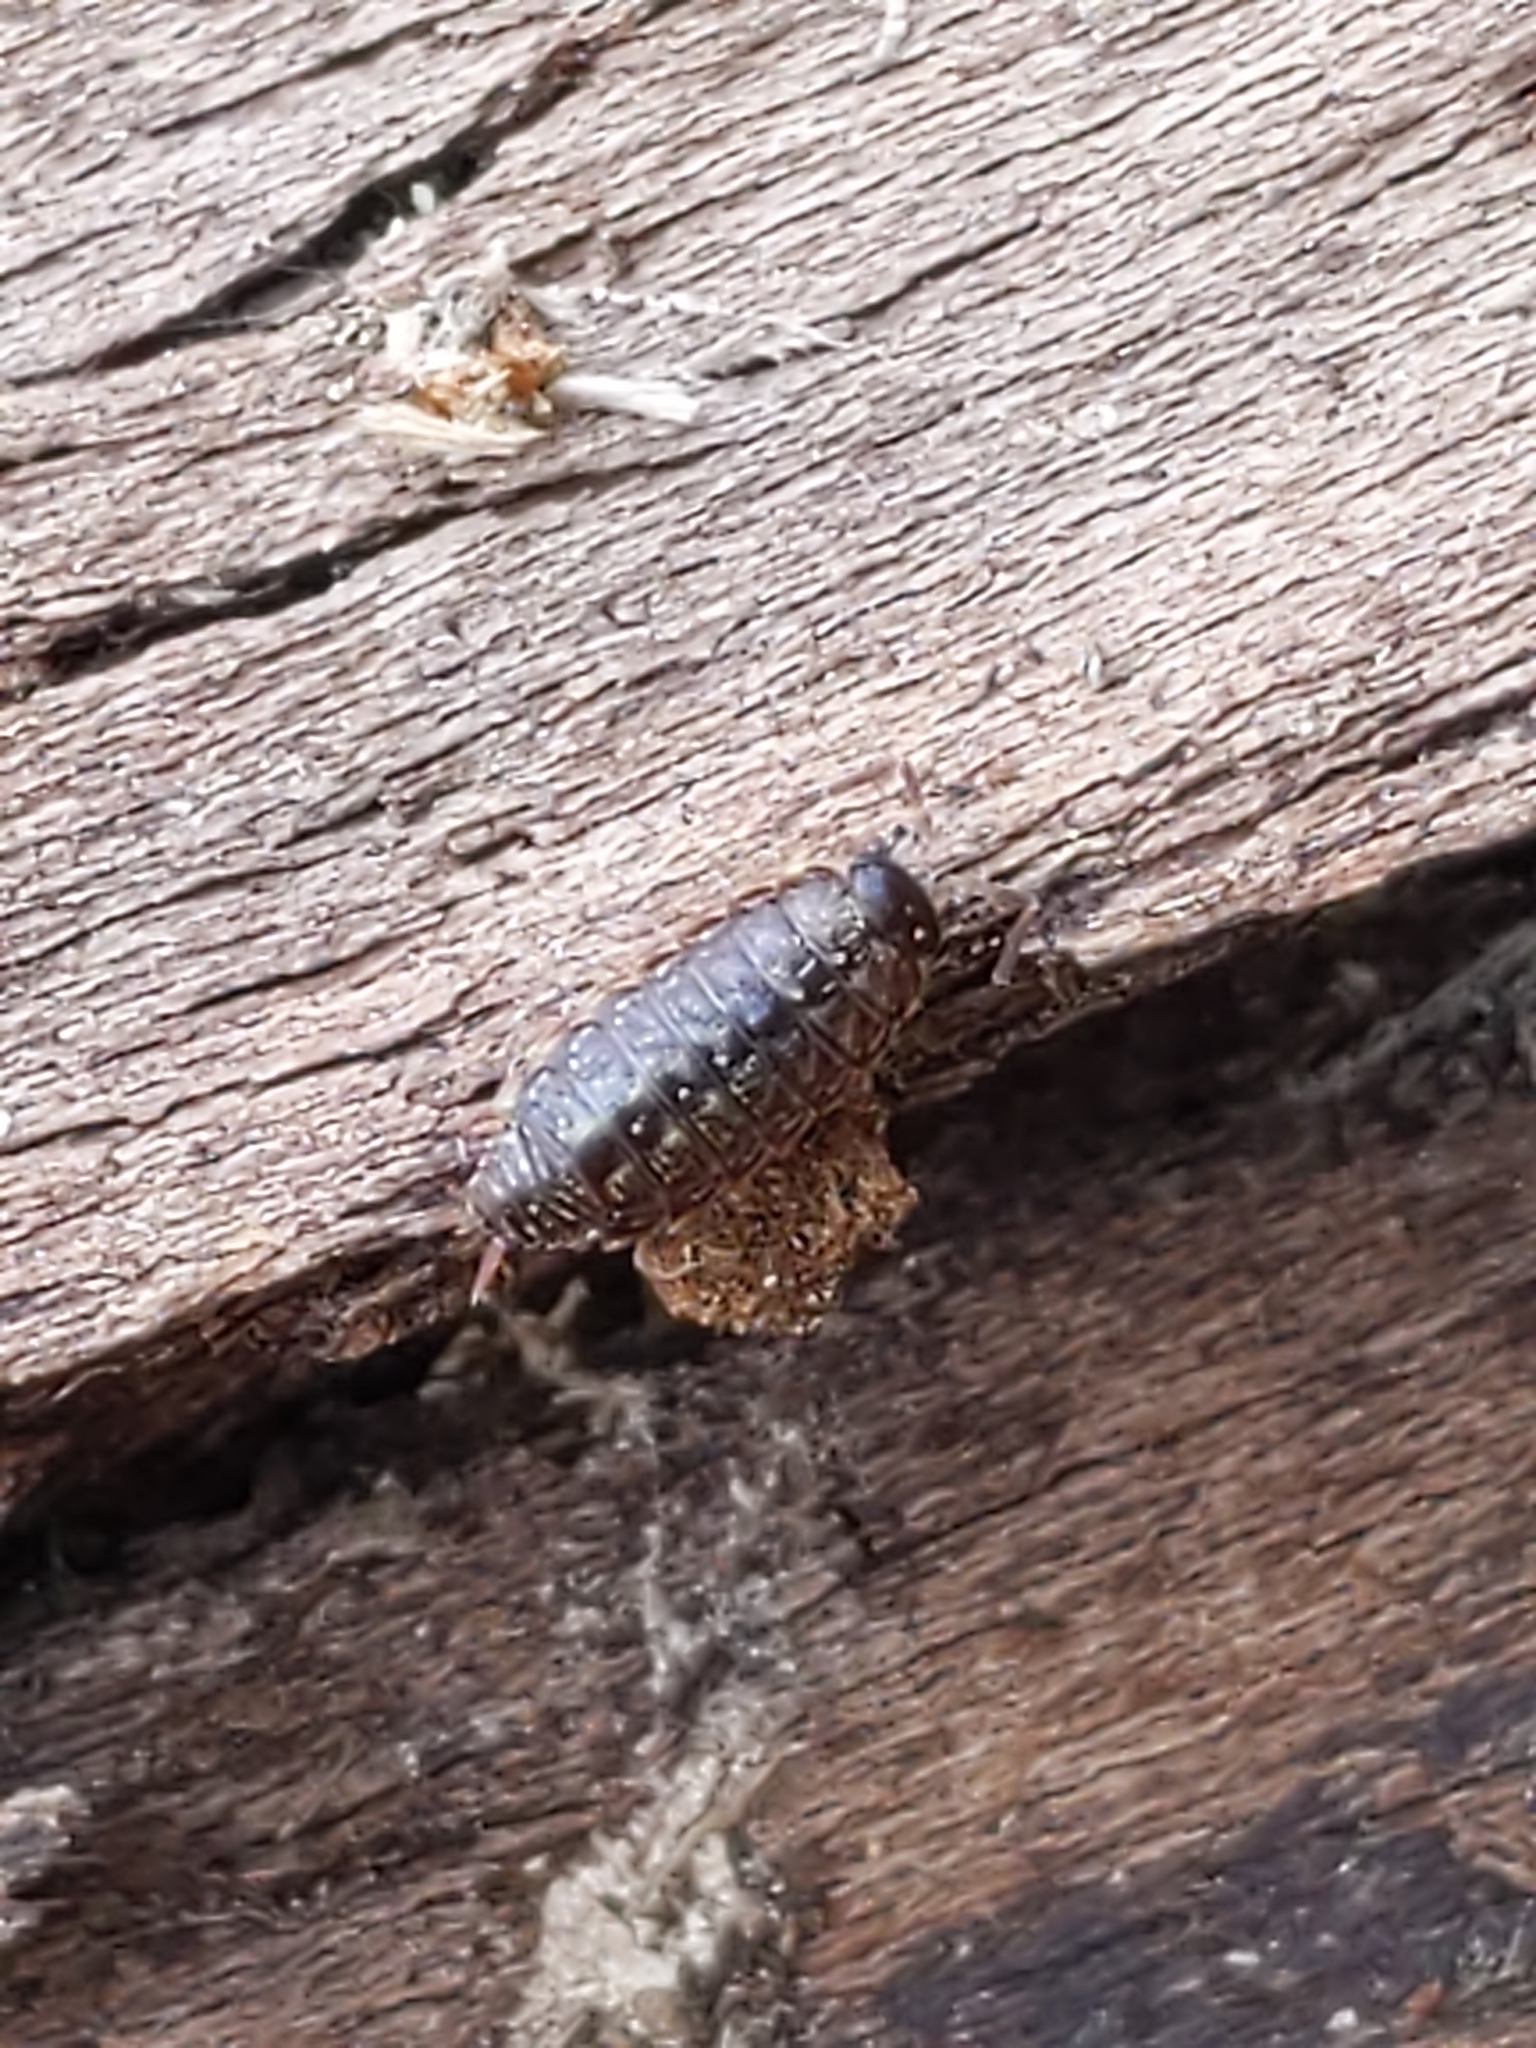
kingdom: Animalia
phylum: Arthropoda
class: Malacostraca
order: Isopoda
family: Philosciidae
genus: Philoscia
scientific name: Philoscia muscorum
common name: Common striped woodlouse
